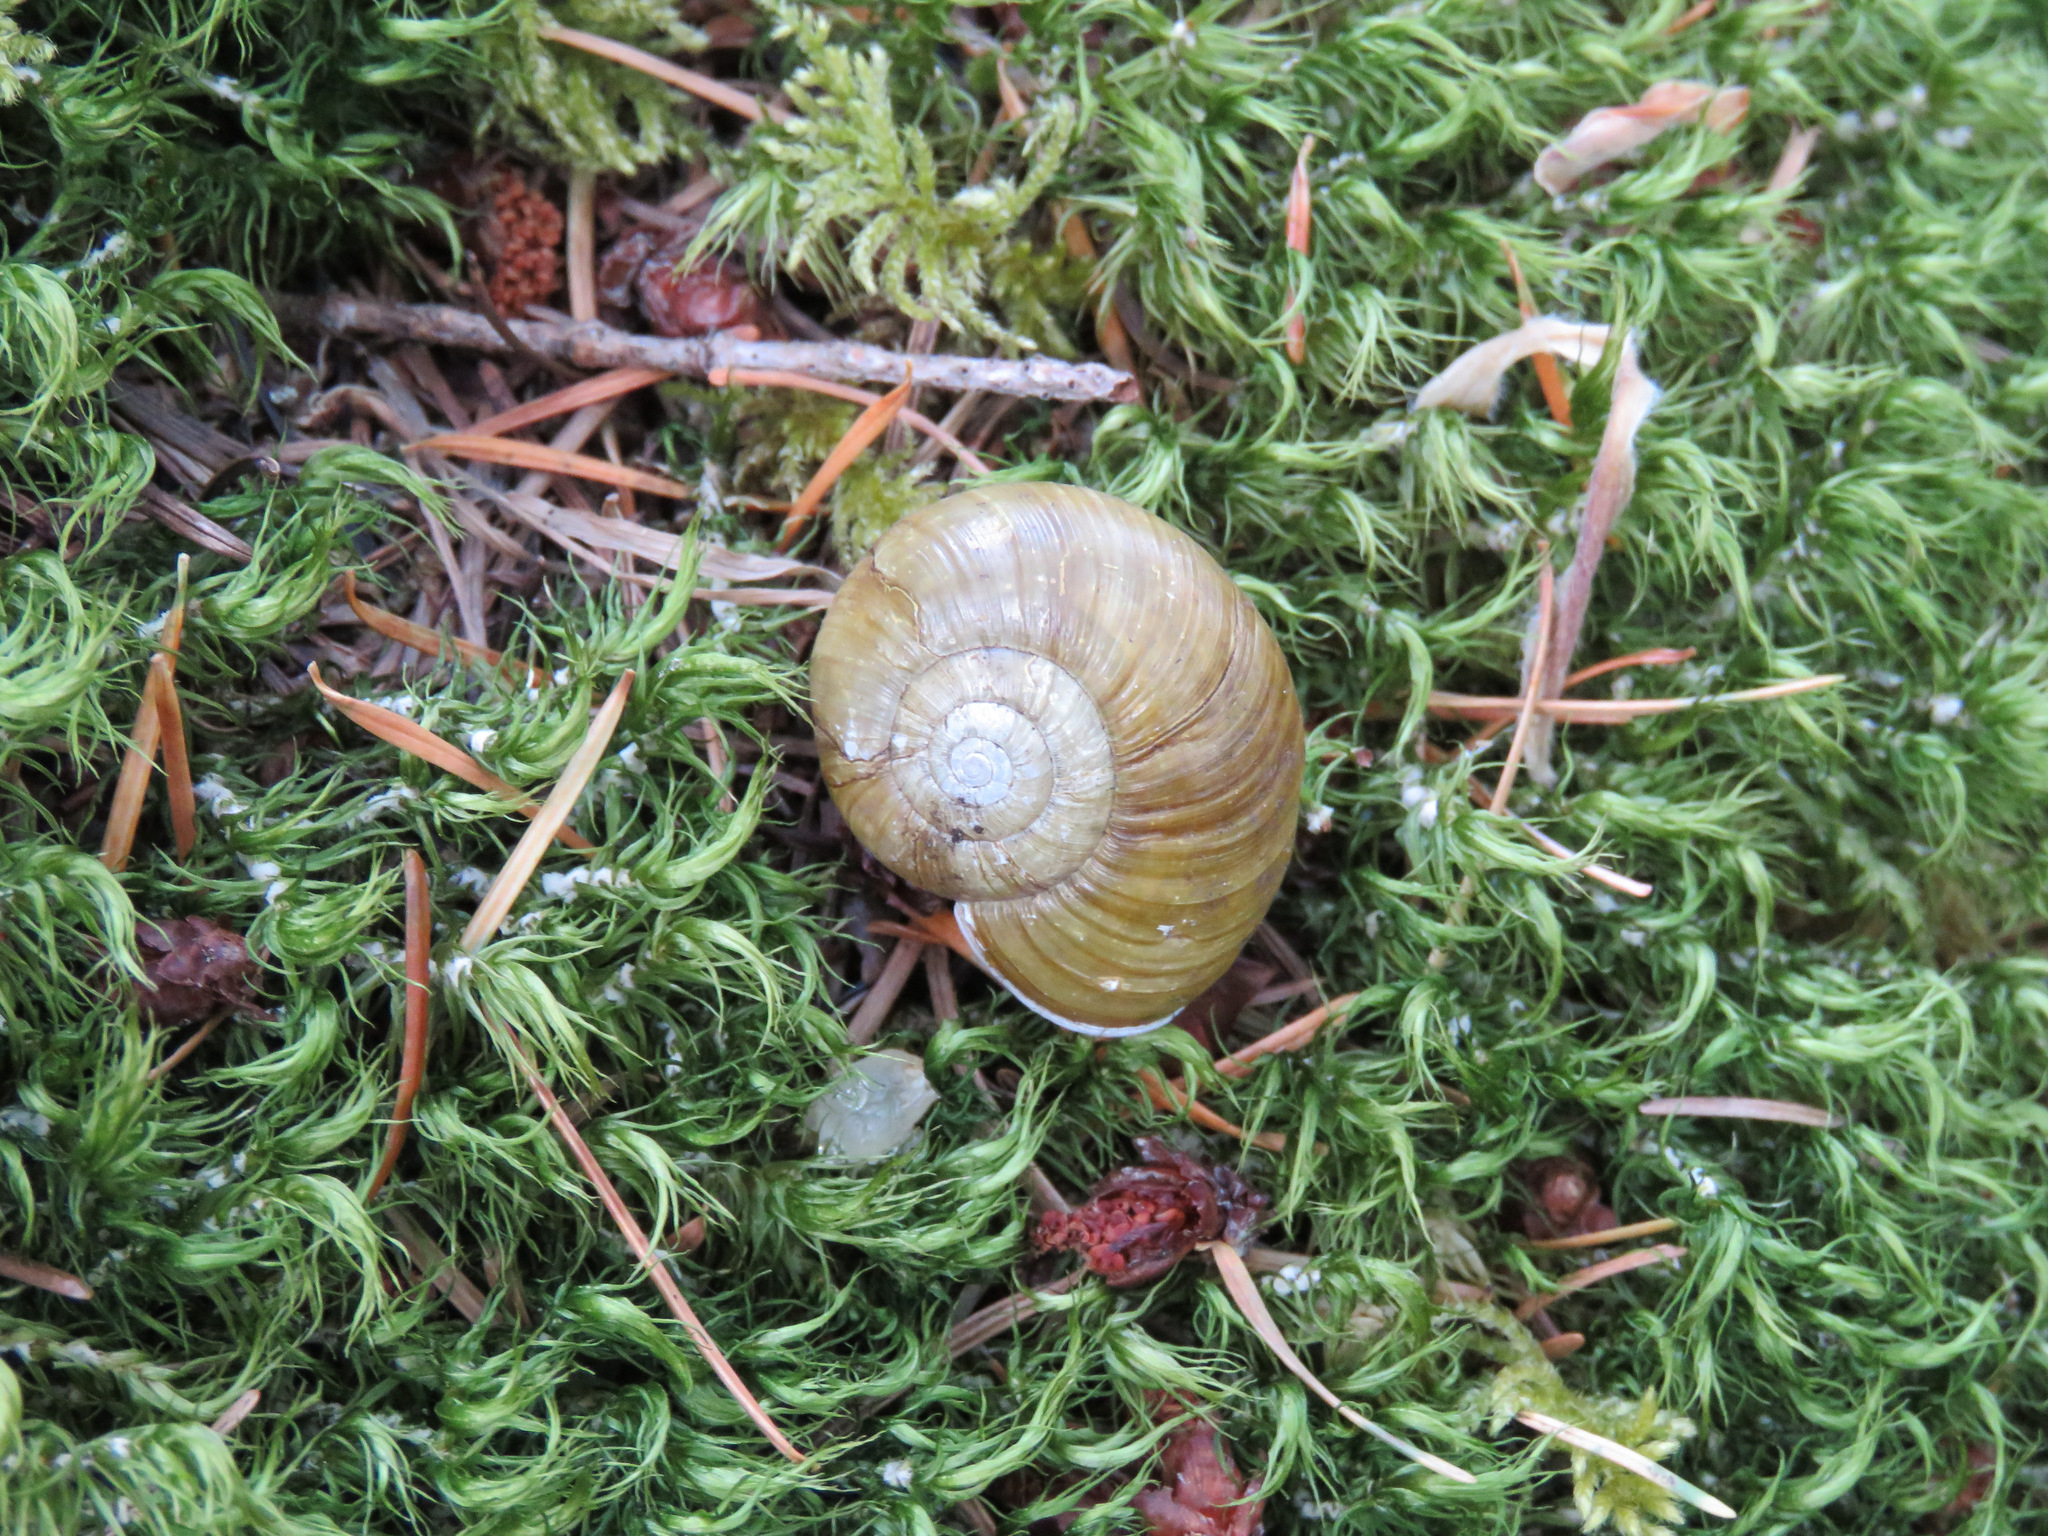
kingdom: Animalia
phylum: Mollusca
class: Gastropoda
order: Stylommatophora
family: Haplotrematidae
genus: Haplotrema
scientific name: Haplotrema vancouverense
